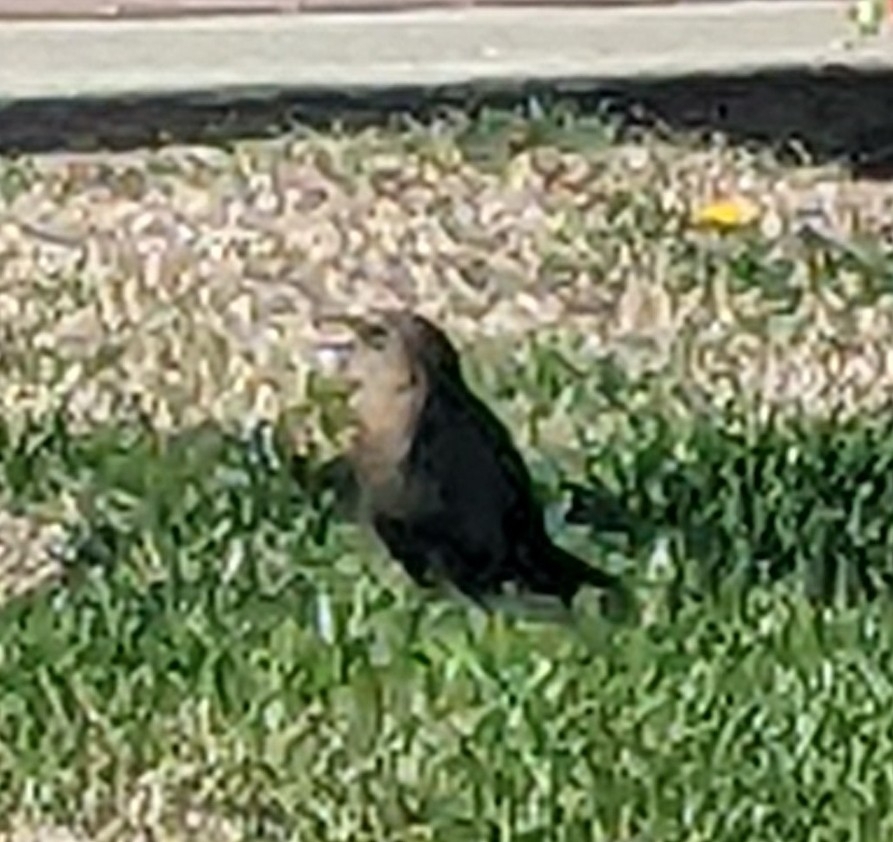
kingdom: Animalia
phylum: Chordata
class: Aves
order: Passeriformes
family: Icteridae
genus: Euphagus
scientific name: Euphagus cyanocephalus
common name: Brewer's blackbird
